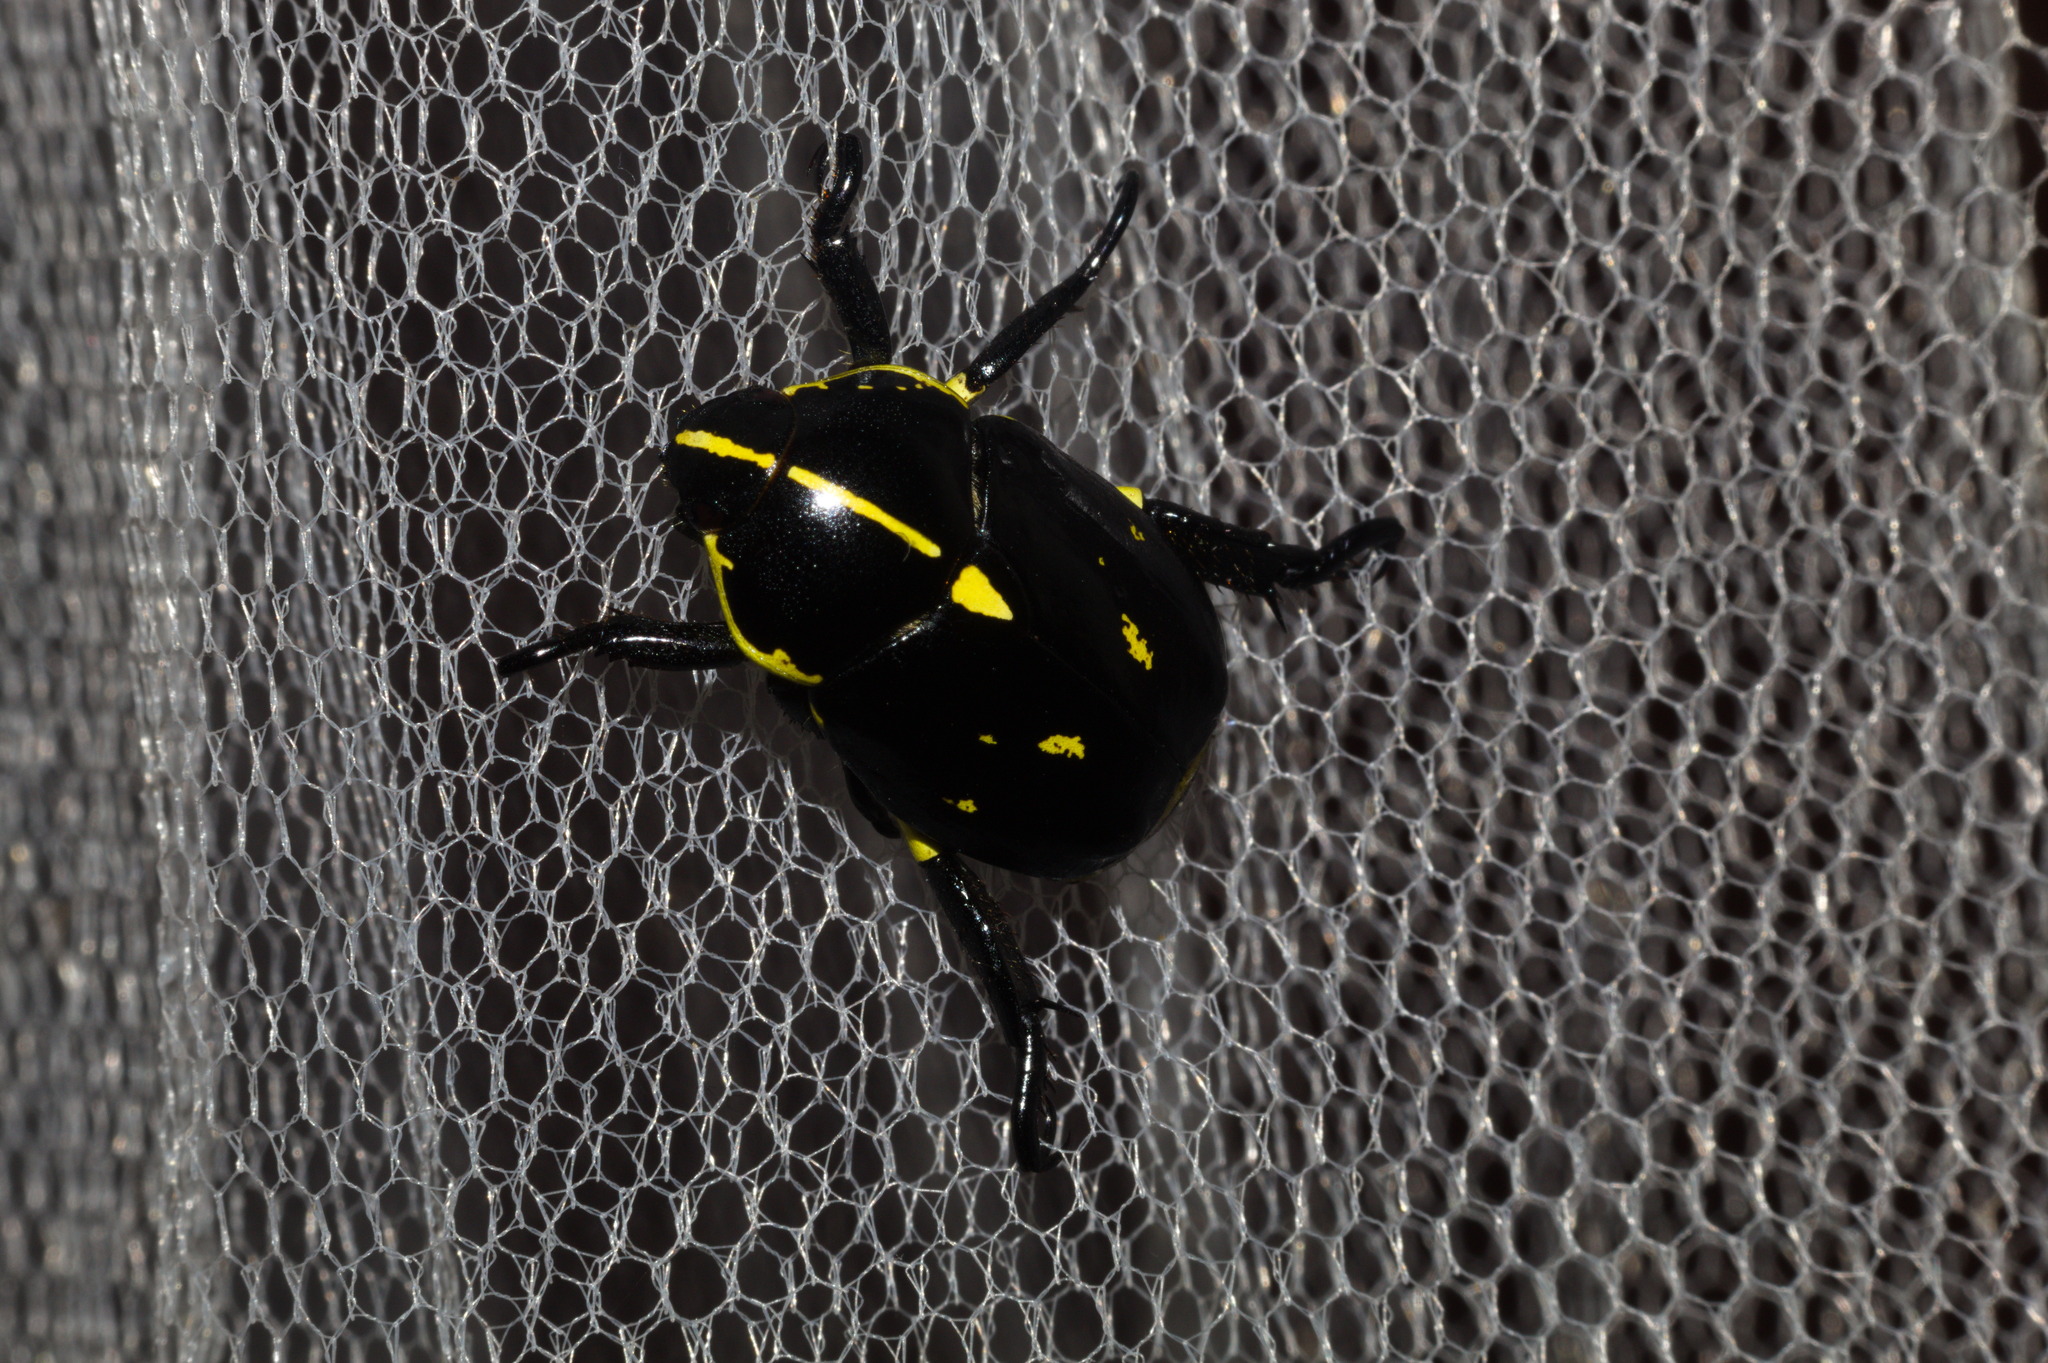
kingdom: Animalia
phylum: Arthropoda
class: Insecta
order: Coleoptera
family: Scarabaeidae
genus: Rutela
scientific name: Rutela lineola
